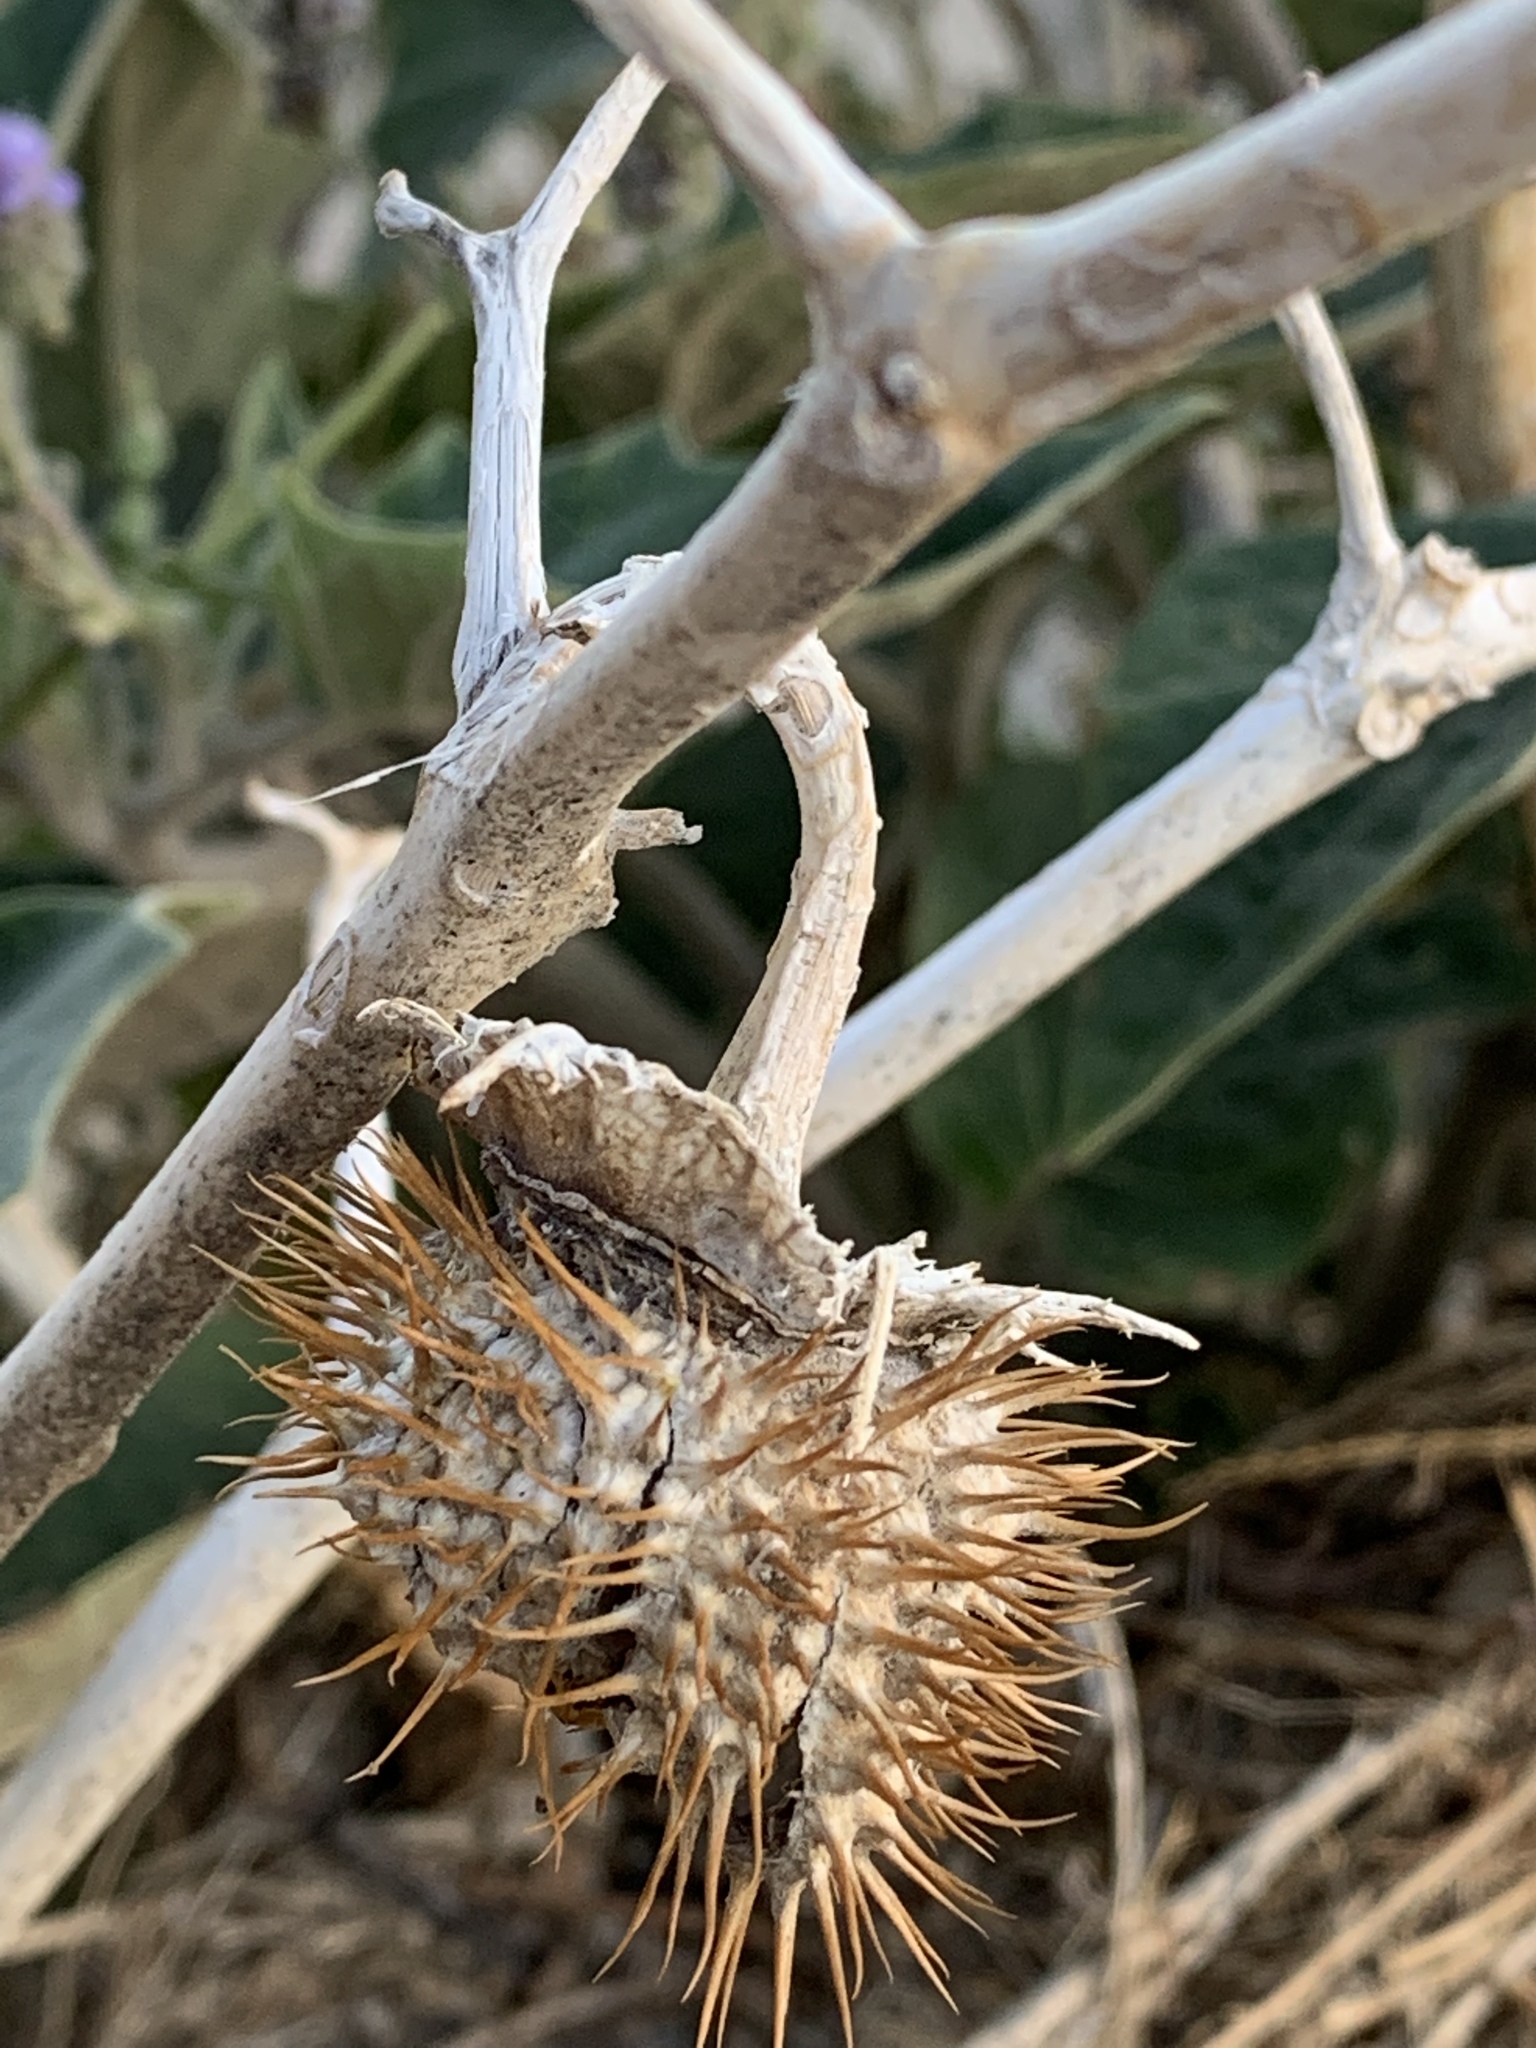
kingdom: Plantae
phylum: Tracheophyta
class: Magnoliopsida
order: Solanales
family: Solanaceae
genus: Datura
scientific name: Datura wrightii
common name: Sacred thorn-apple
